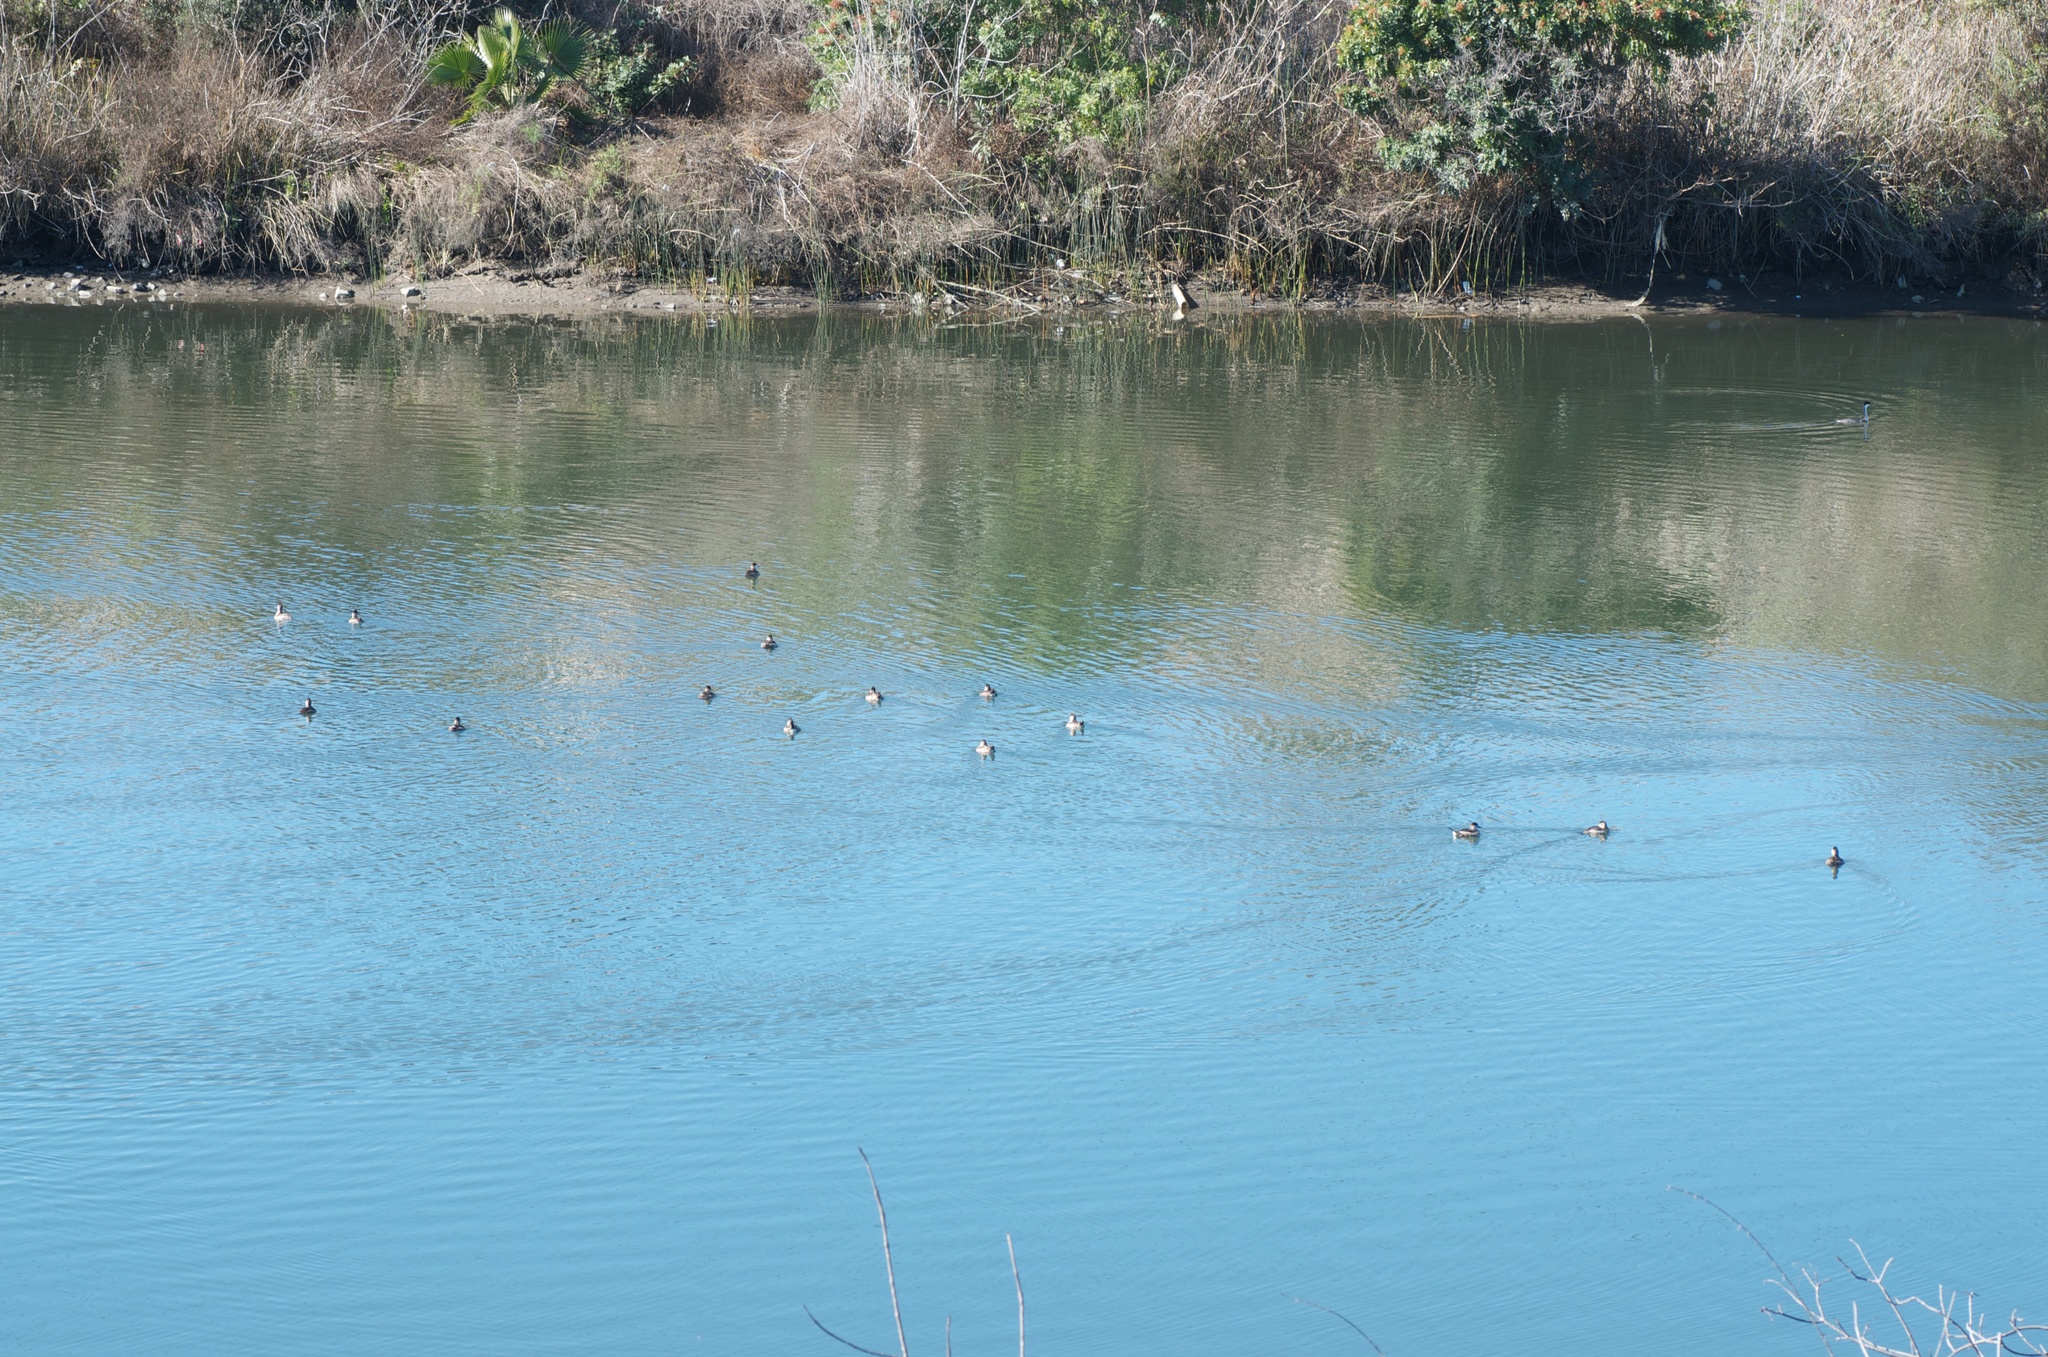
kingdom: Animalia
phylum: Chordata
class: Aves
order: Anseriformes
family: Anatidae
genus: Oxyura
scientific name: Oxyura jamaicensis
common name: Ruddy duck
